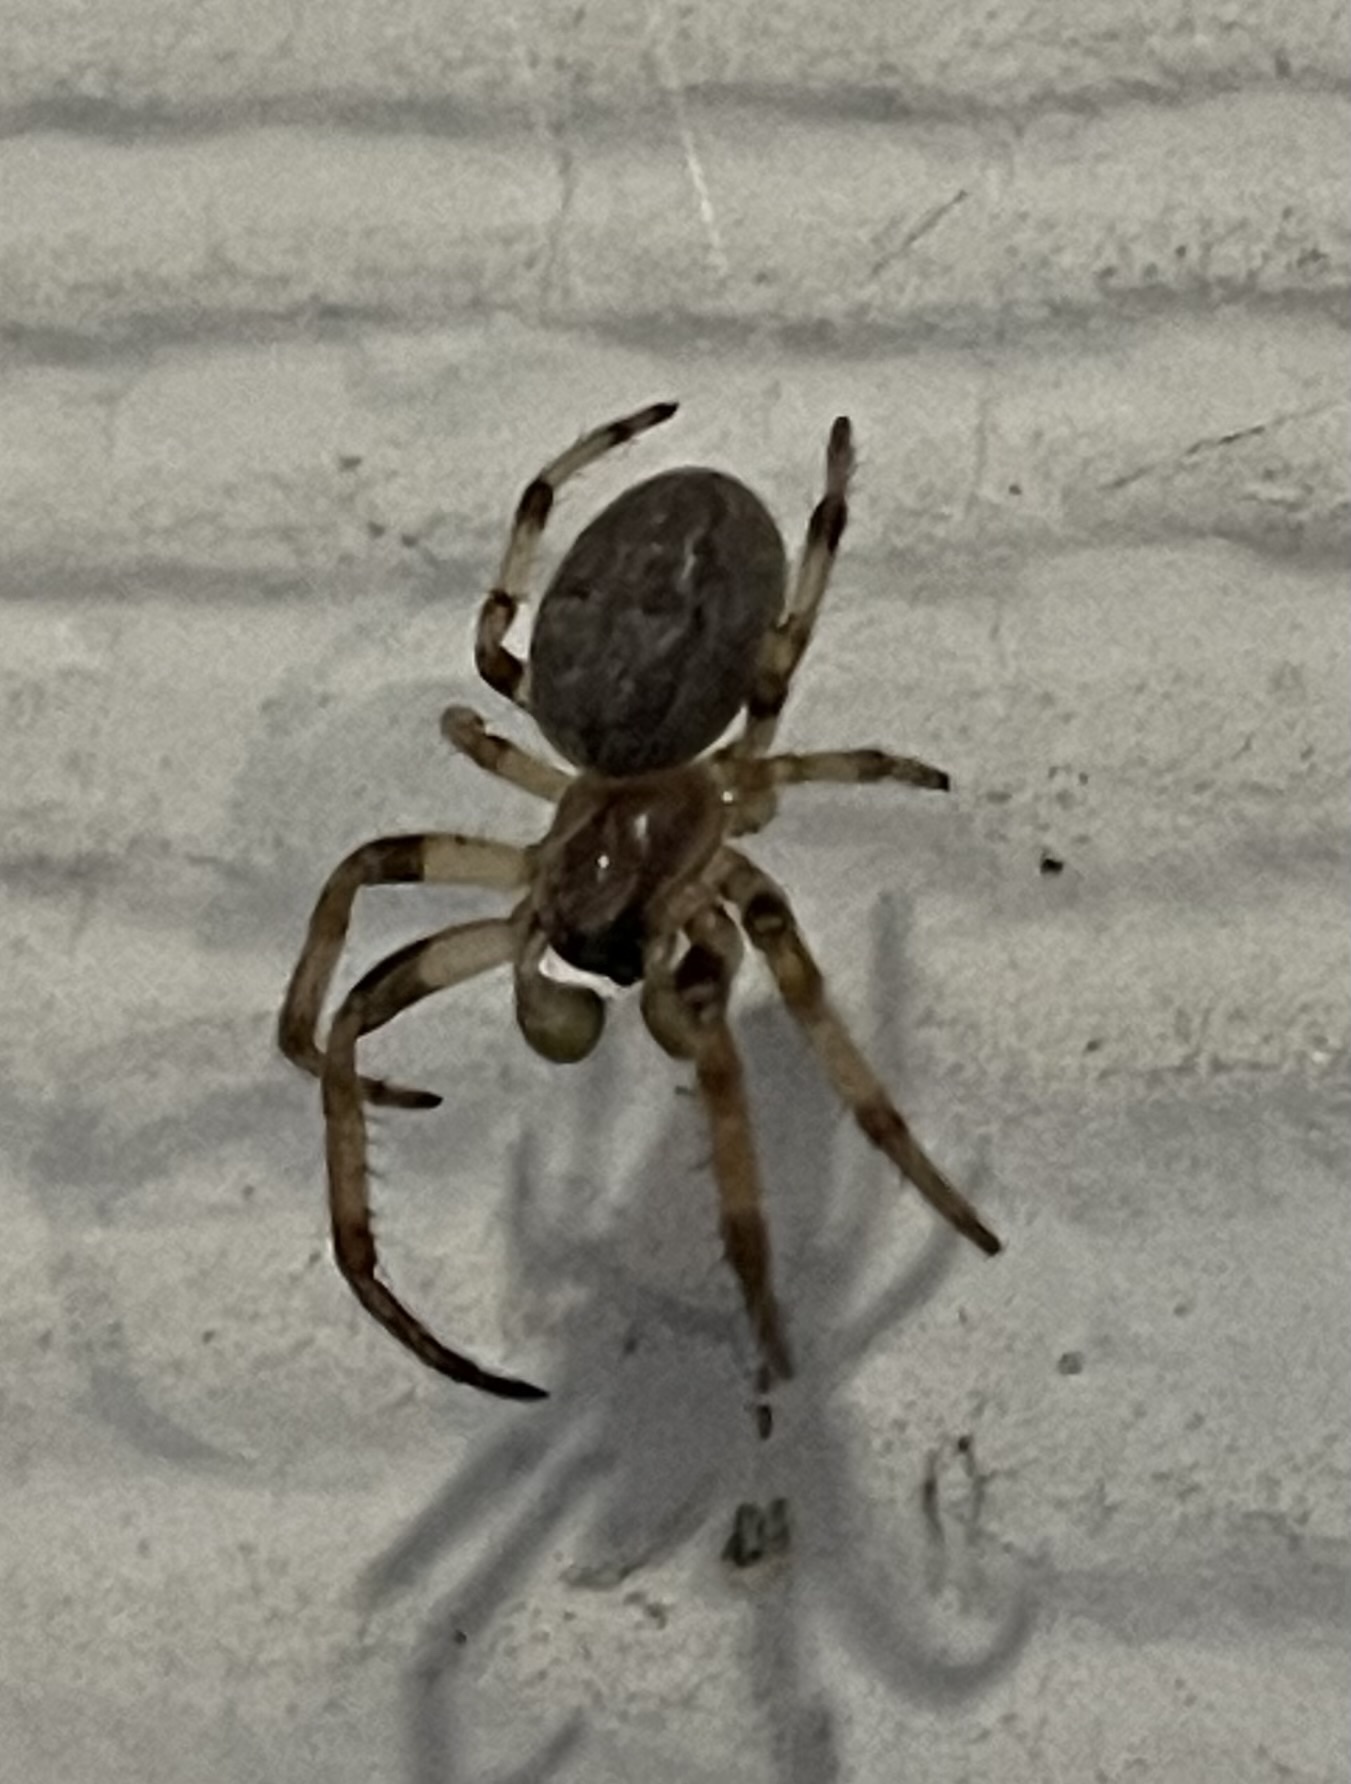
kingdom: Animalia
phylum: Arthropoda
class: Arachnida
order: Araneae
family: Araneidae
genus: Larinioides
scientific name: Larinioides cornutus
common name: Furrow orbweaver
